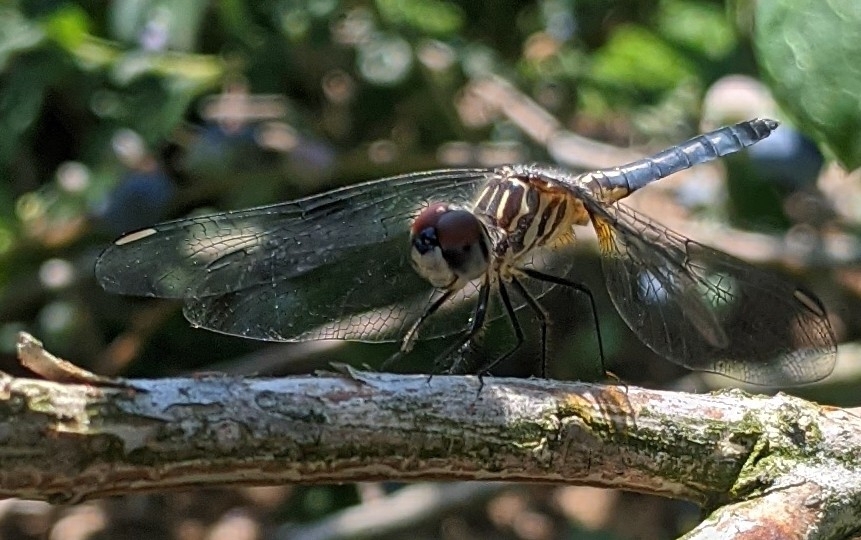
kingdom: Animalia
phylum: Arthropoda
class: Insecta
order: Odonata
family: Libellulidae
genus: Pachydiplax
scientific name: Pachydiplax longipennis
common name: Blue dasher
